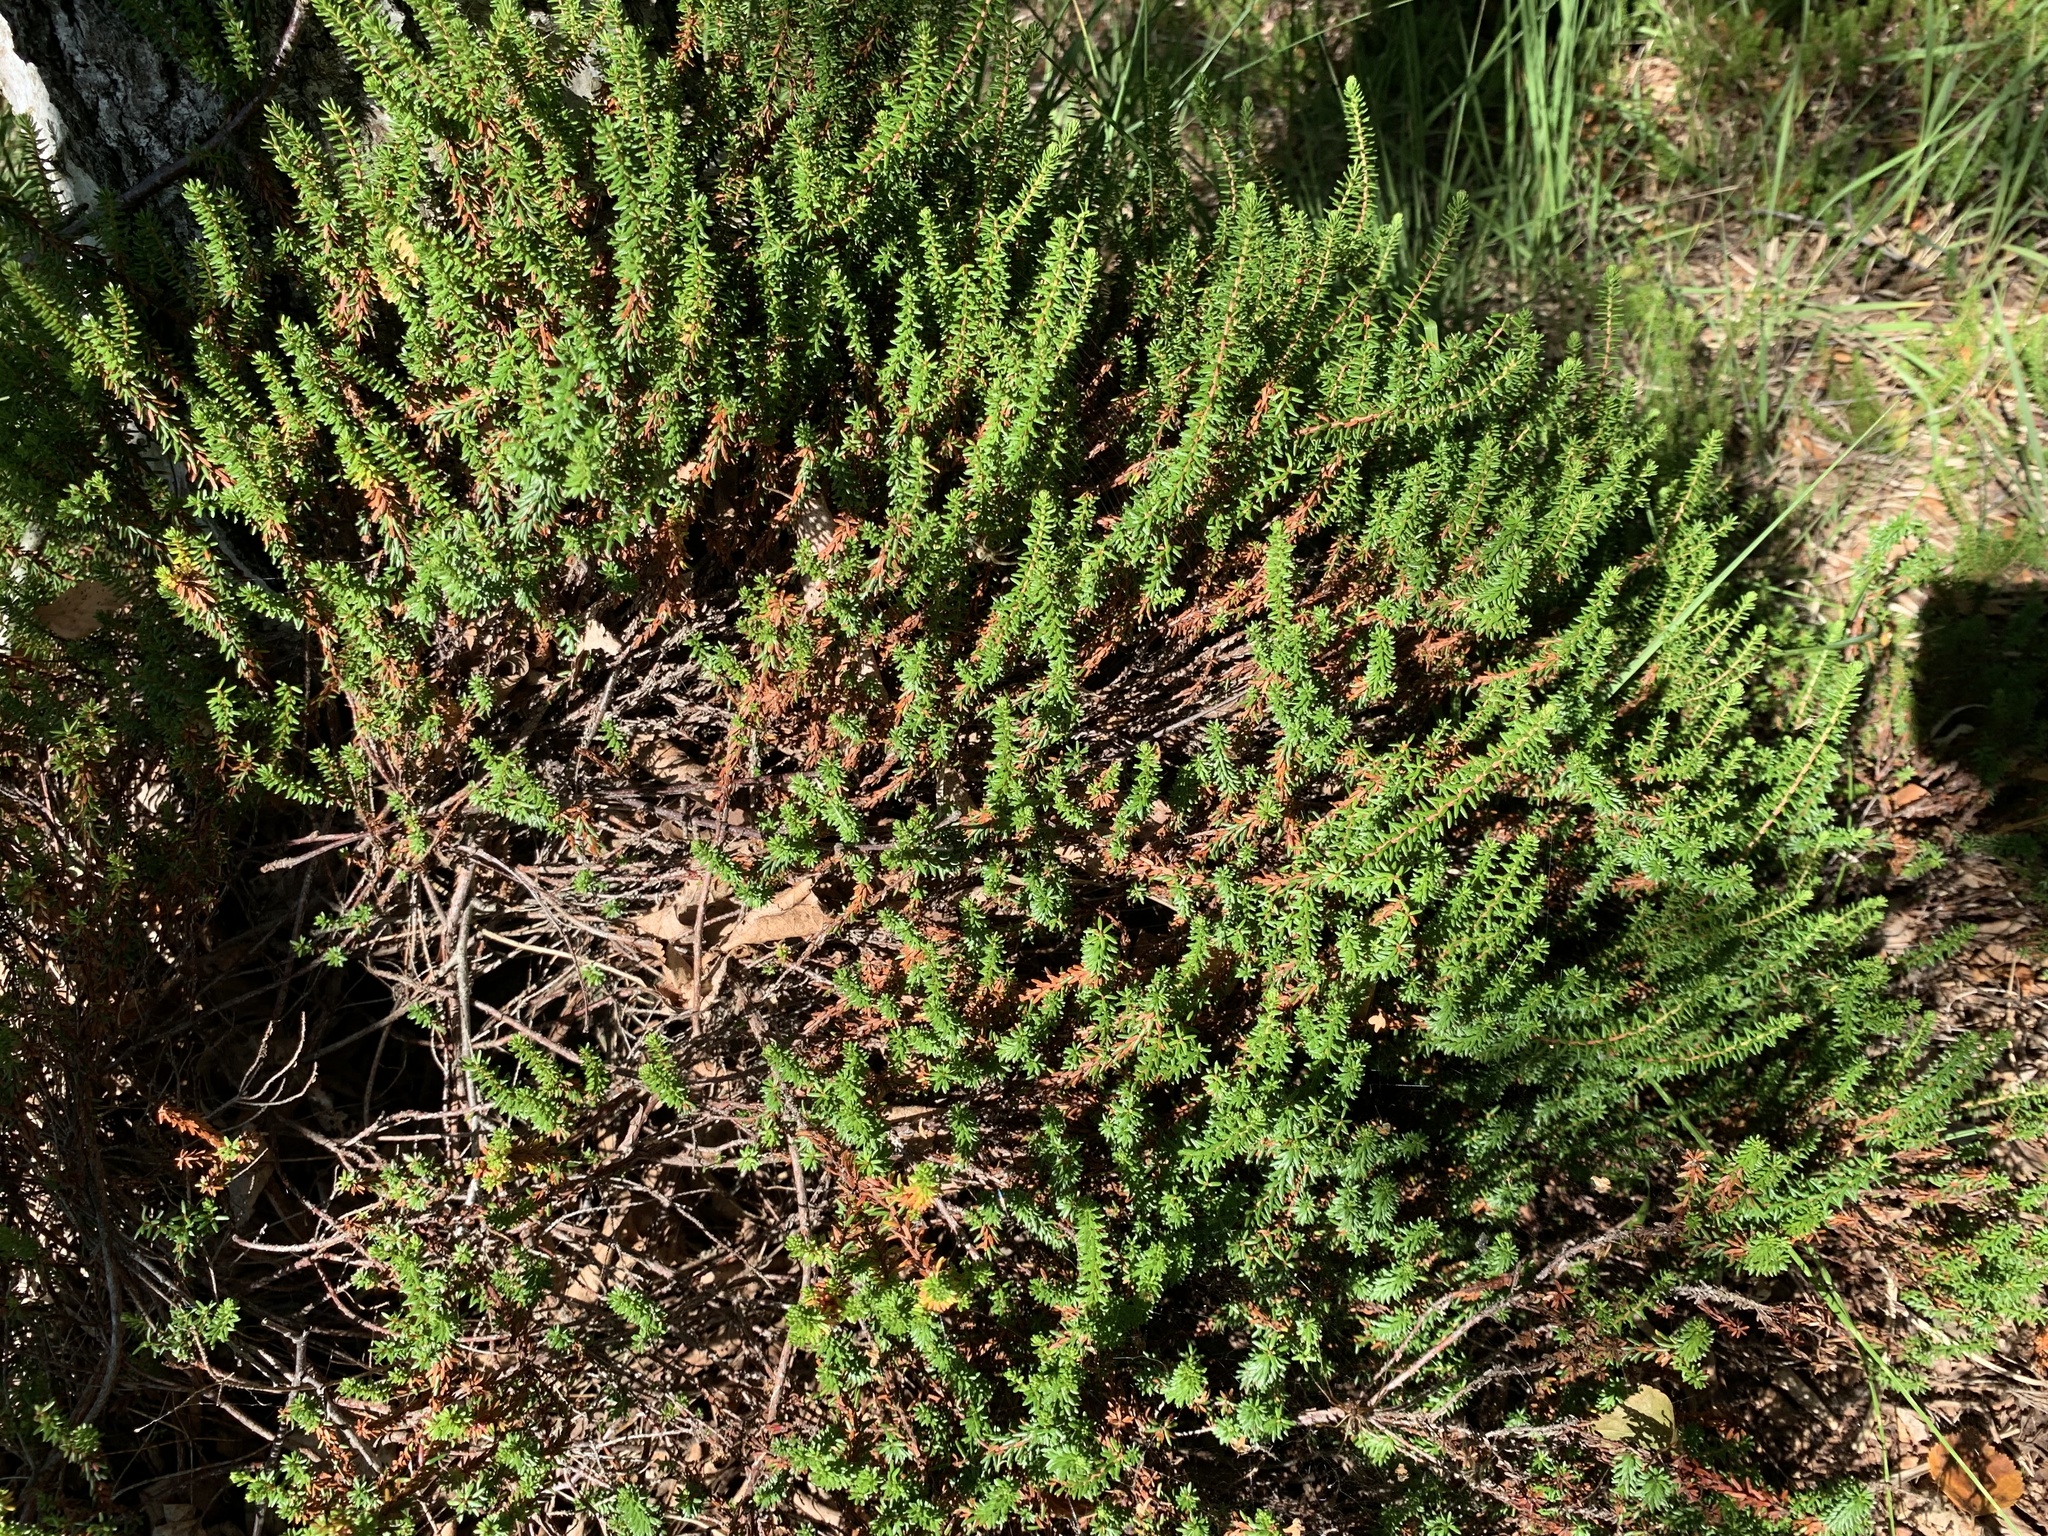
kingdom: Plantae
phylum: Tracheophyta
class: Magnoliopsida
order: Ericales
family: Ericaceae
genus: Empetrum
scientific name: Empetrum nigrum
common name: Black crowberry
